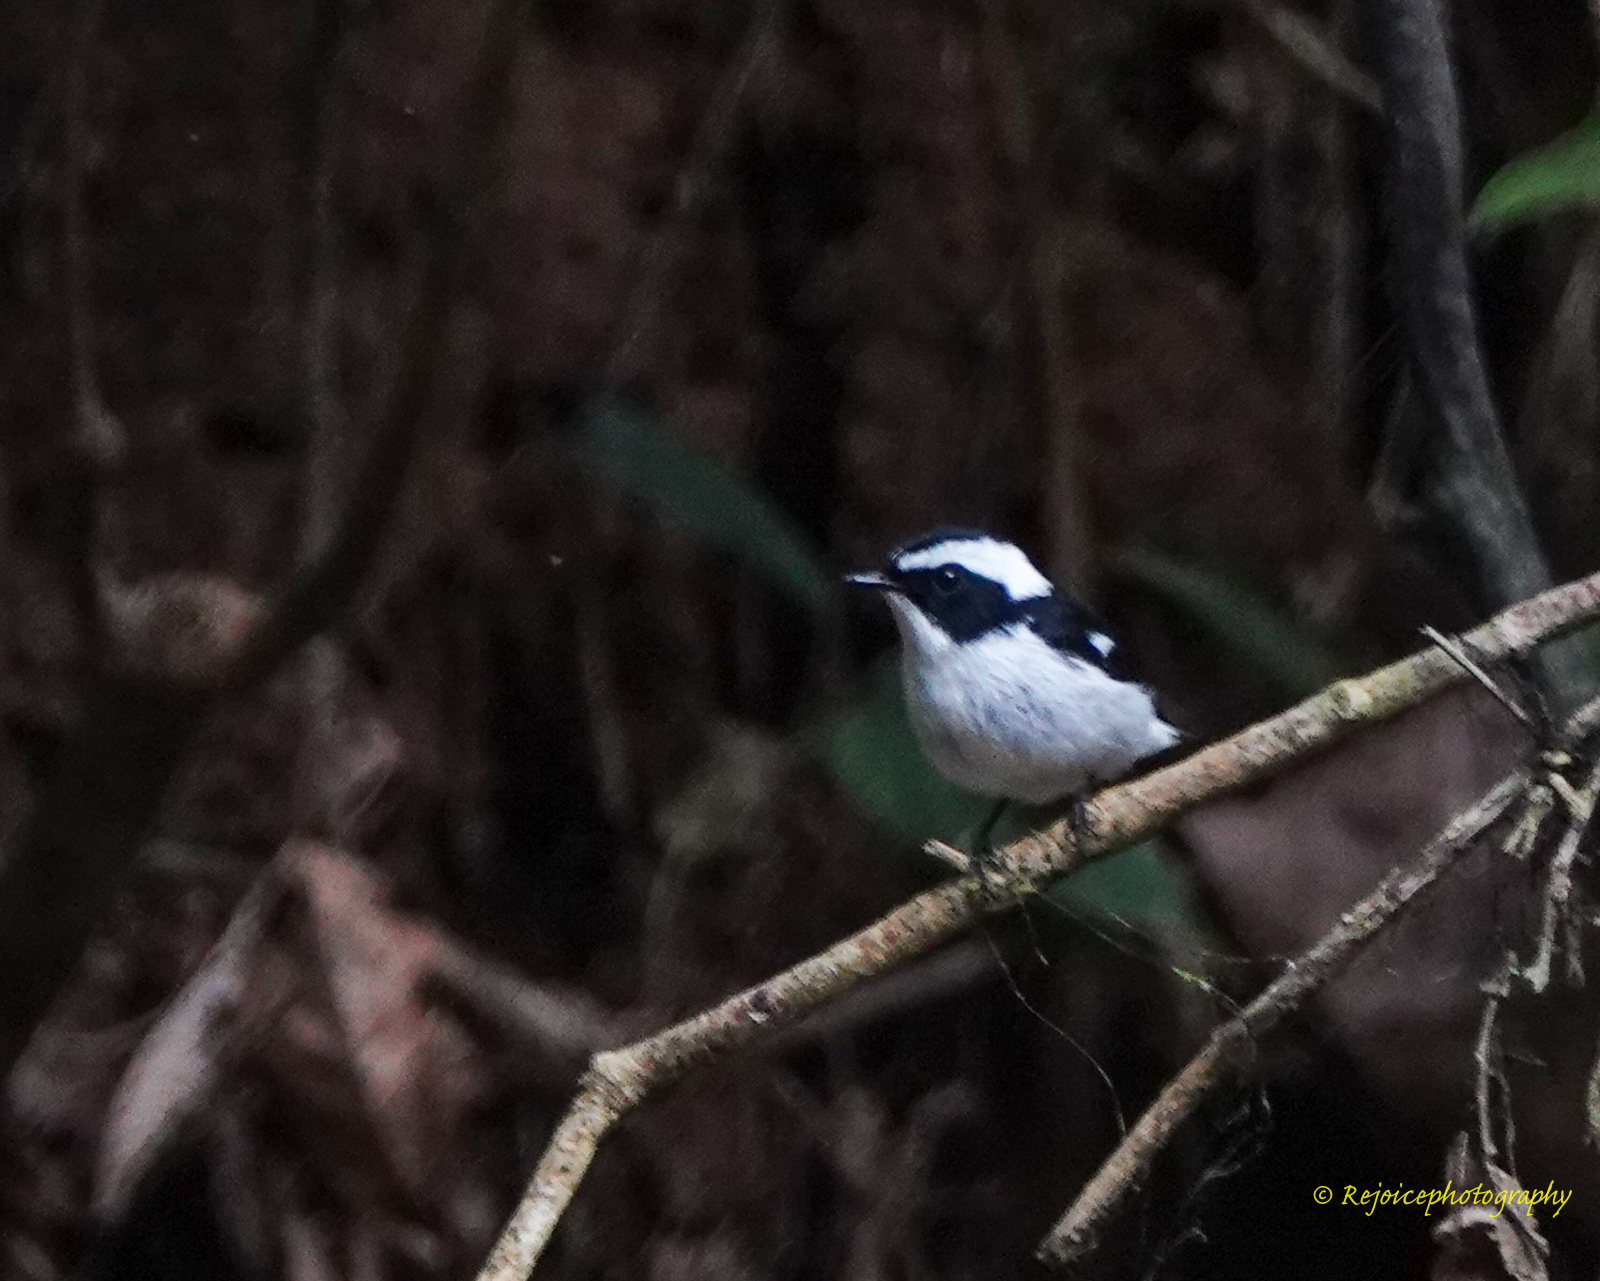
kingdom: Animalia
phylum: Chordata
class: Aves
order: Passeriformes
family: Muscicapidae
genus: Ficedula
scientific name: Ficedula westermanni
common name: Little pied flycatcher
